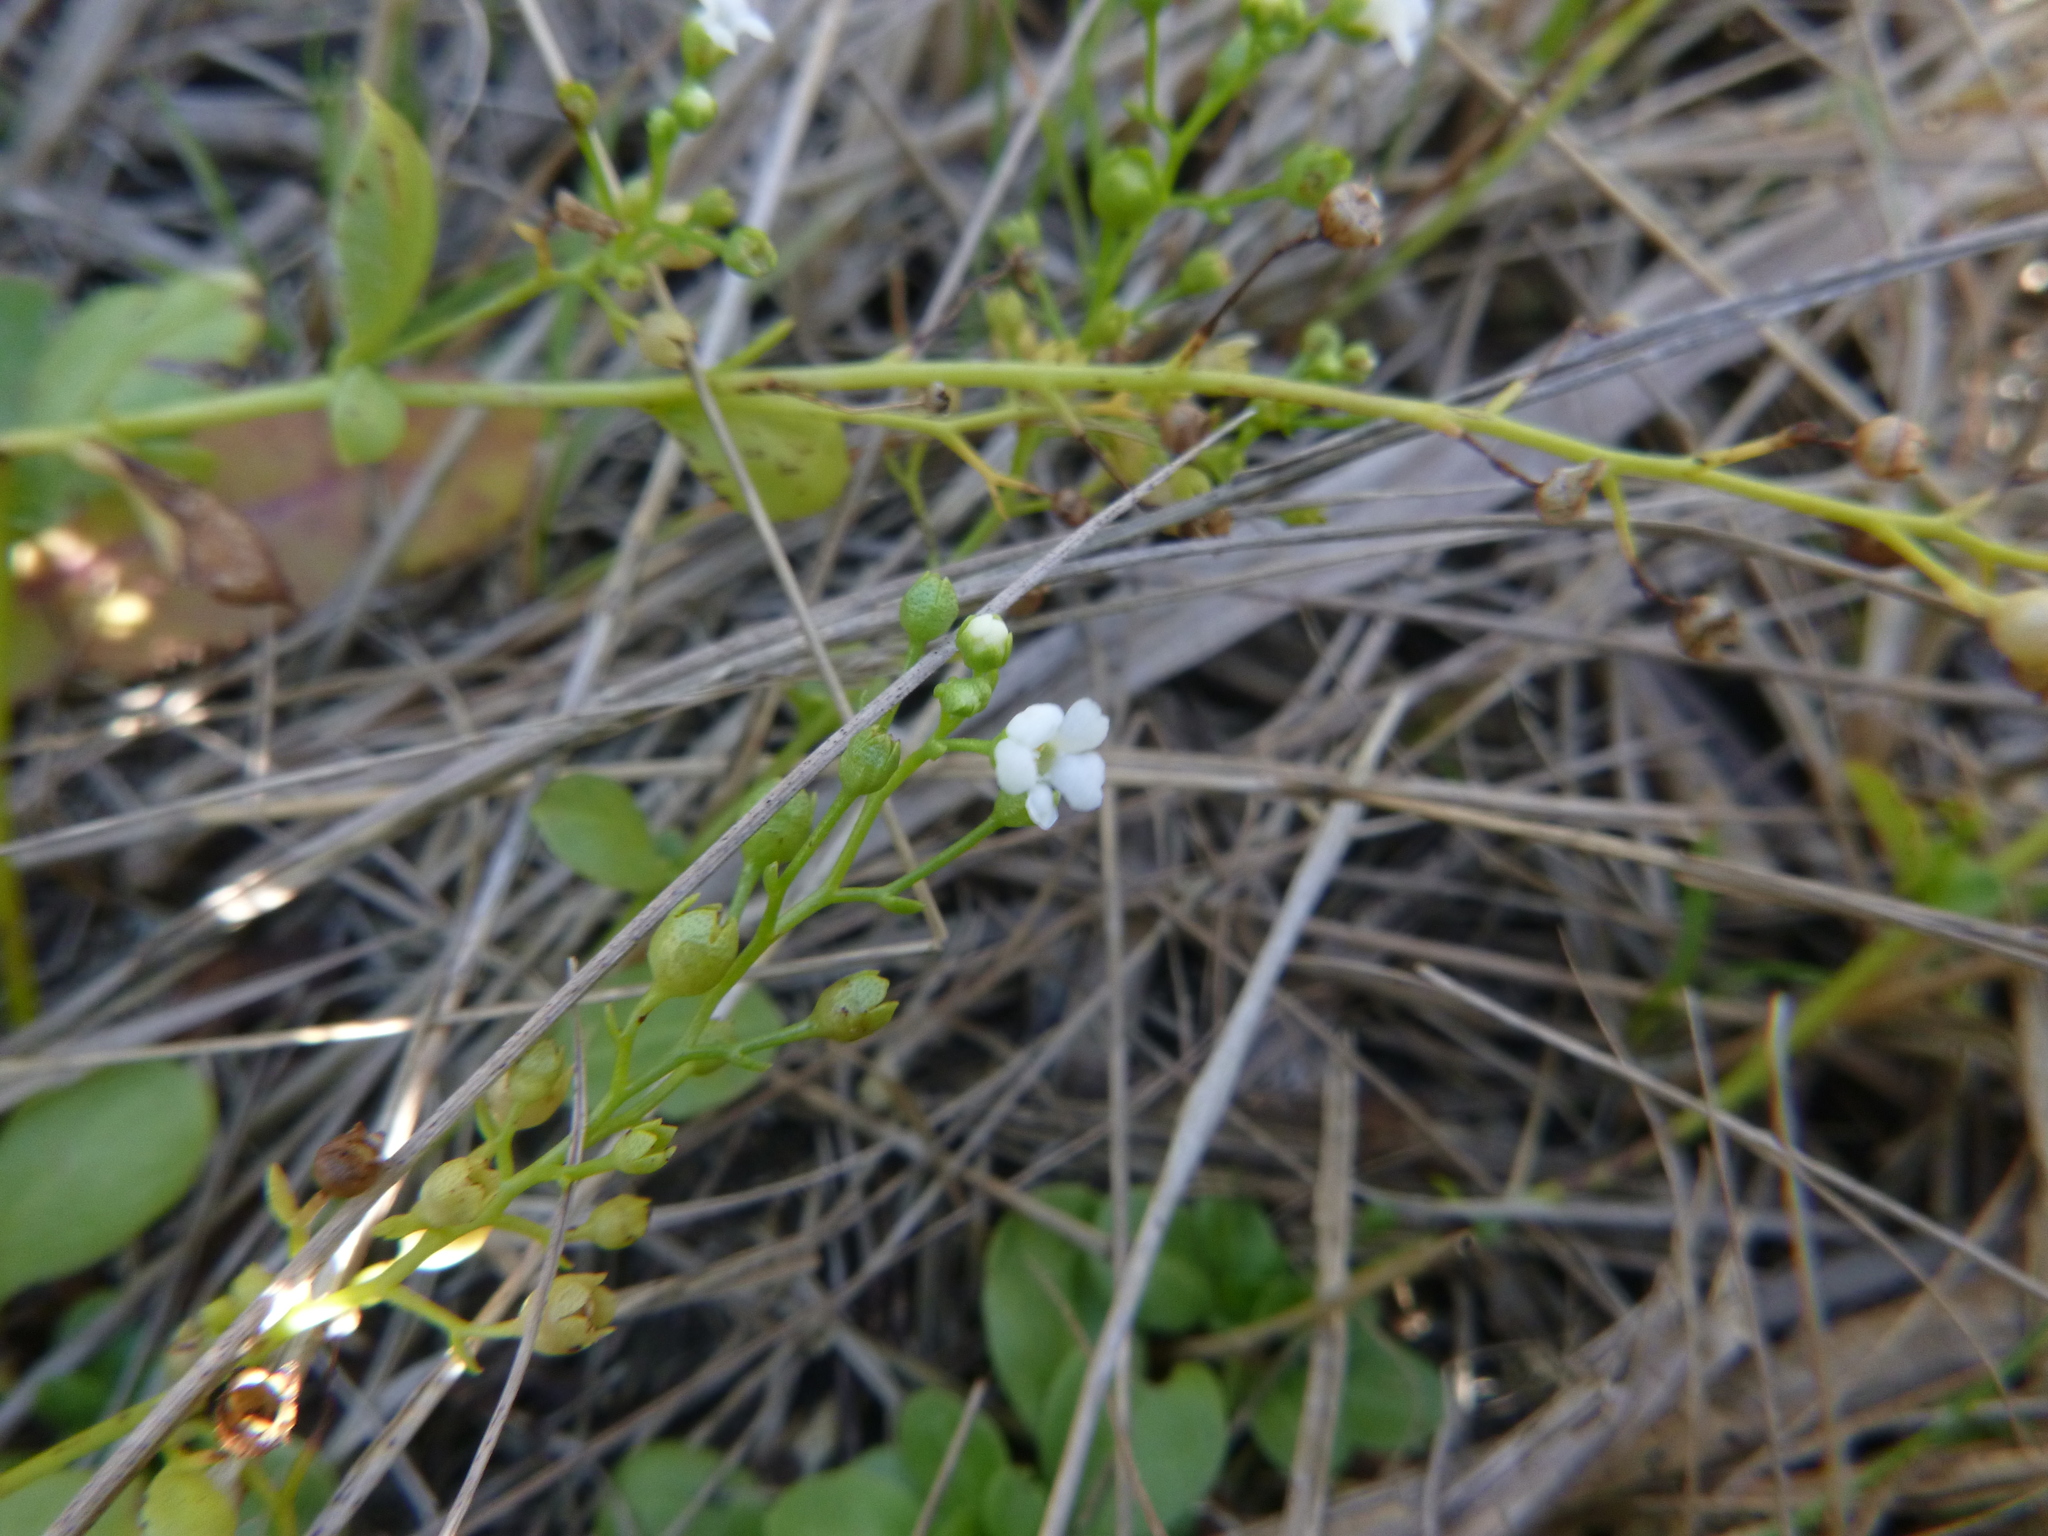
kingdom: Plantae
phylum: Tracheophyta
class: Magnoliopsida
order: Ericales
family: Primulaceae
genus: Samolus
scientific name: Samolus valerandi
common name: Brookweed
